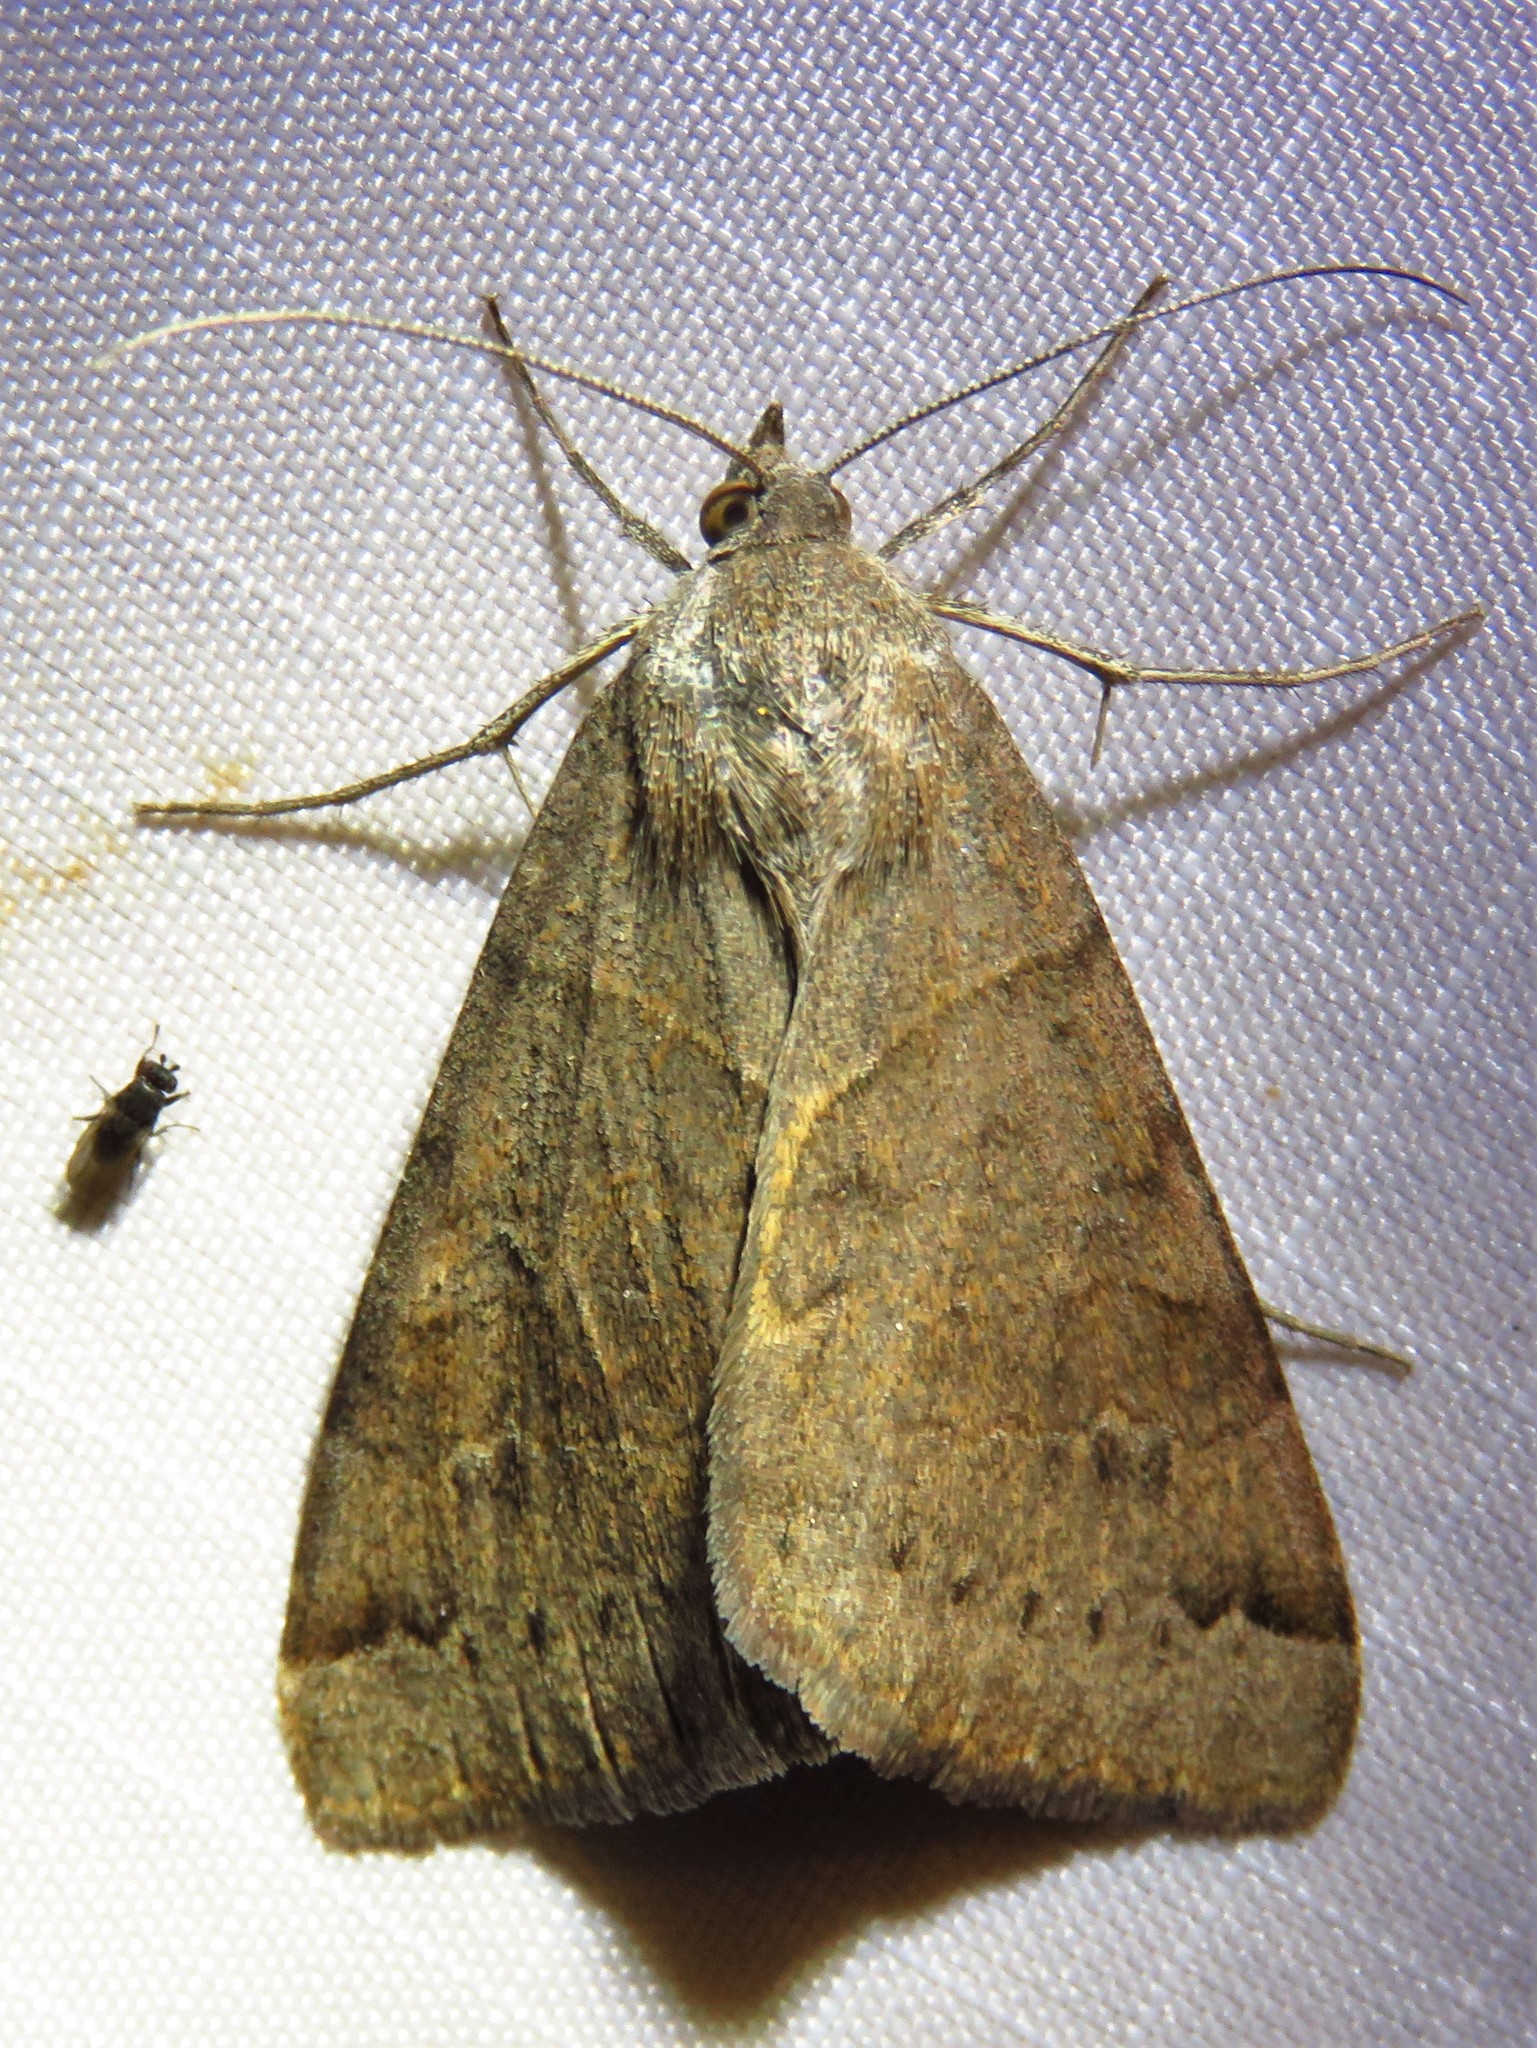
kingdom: Animalia
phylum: Arthropoda
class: Insecta
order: Lepidoptera
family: Erebidae
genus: Caenurgina
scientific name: Caenurgina erechtea
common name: Forage looper moth
